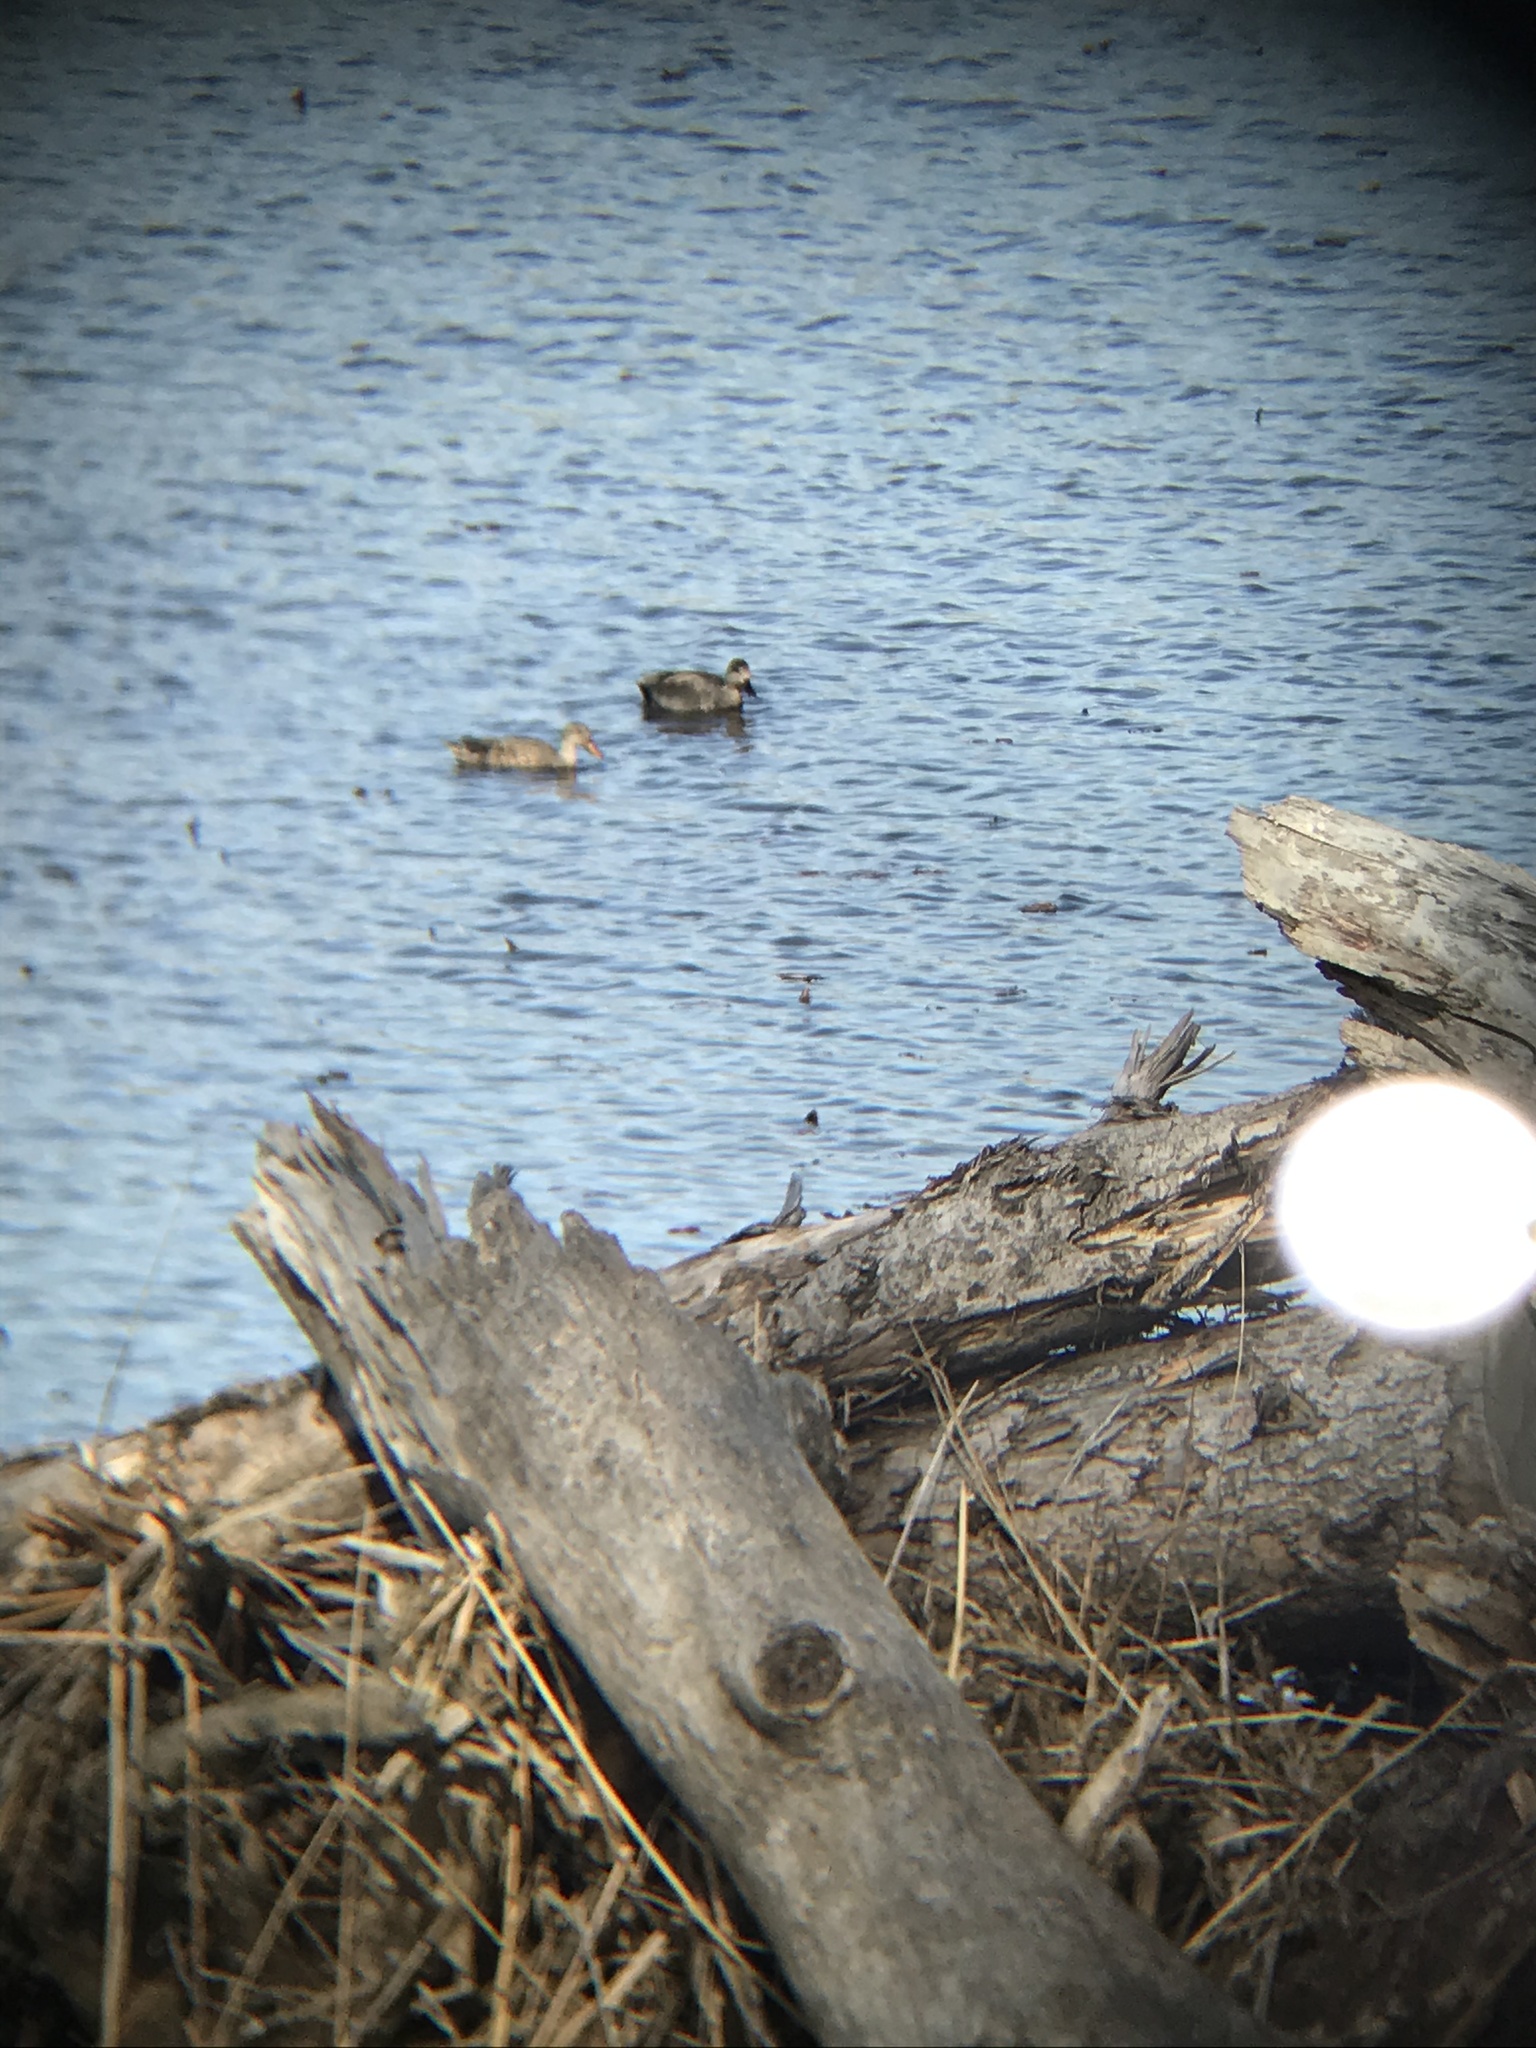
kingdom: Animalia
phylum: Chordata
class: Aves
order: Anseriformes
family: Anatidae
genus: Mareca
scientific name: Mareca strepera
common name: Gadwall
